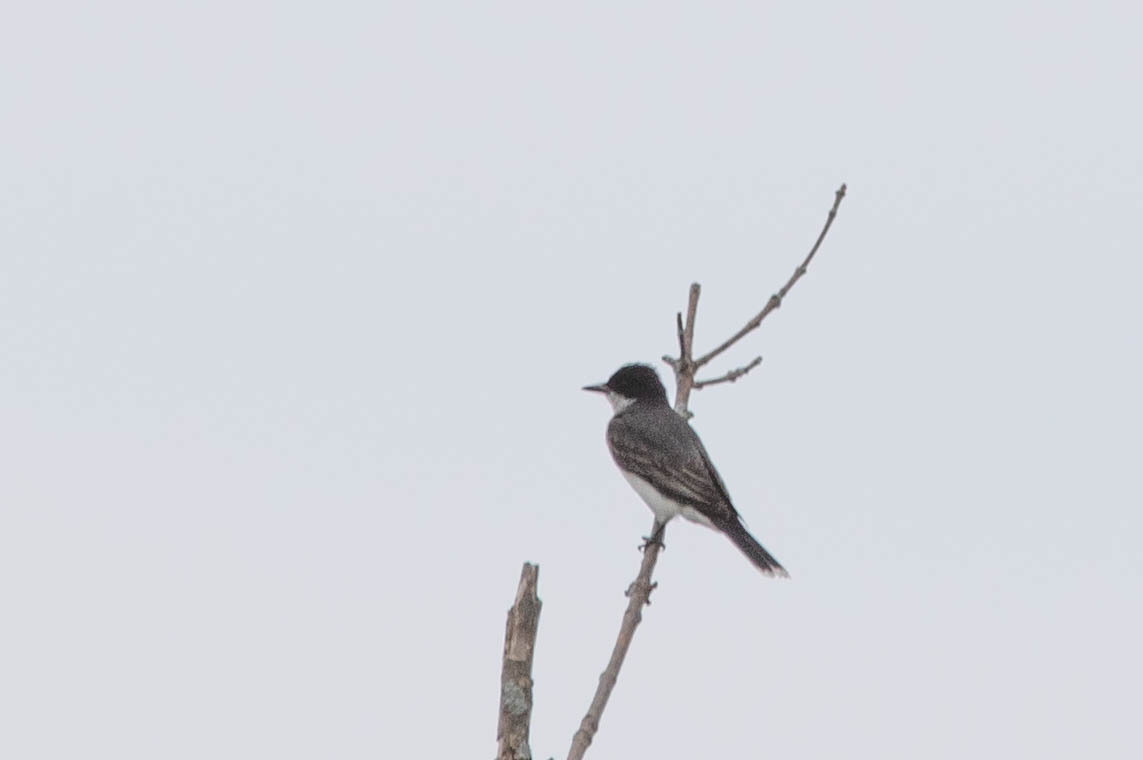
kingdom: Animalia
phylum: Chordata
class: Aves
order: Passeriformes
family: Tyrannidae
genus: Tyrannus
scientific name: Tyrannus tyrannus
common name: Eastern kingbird
